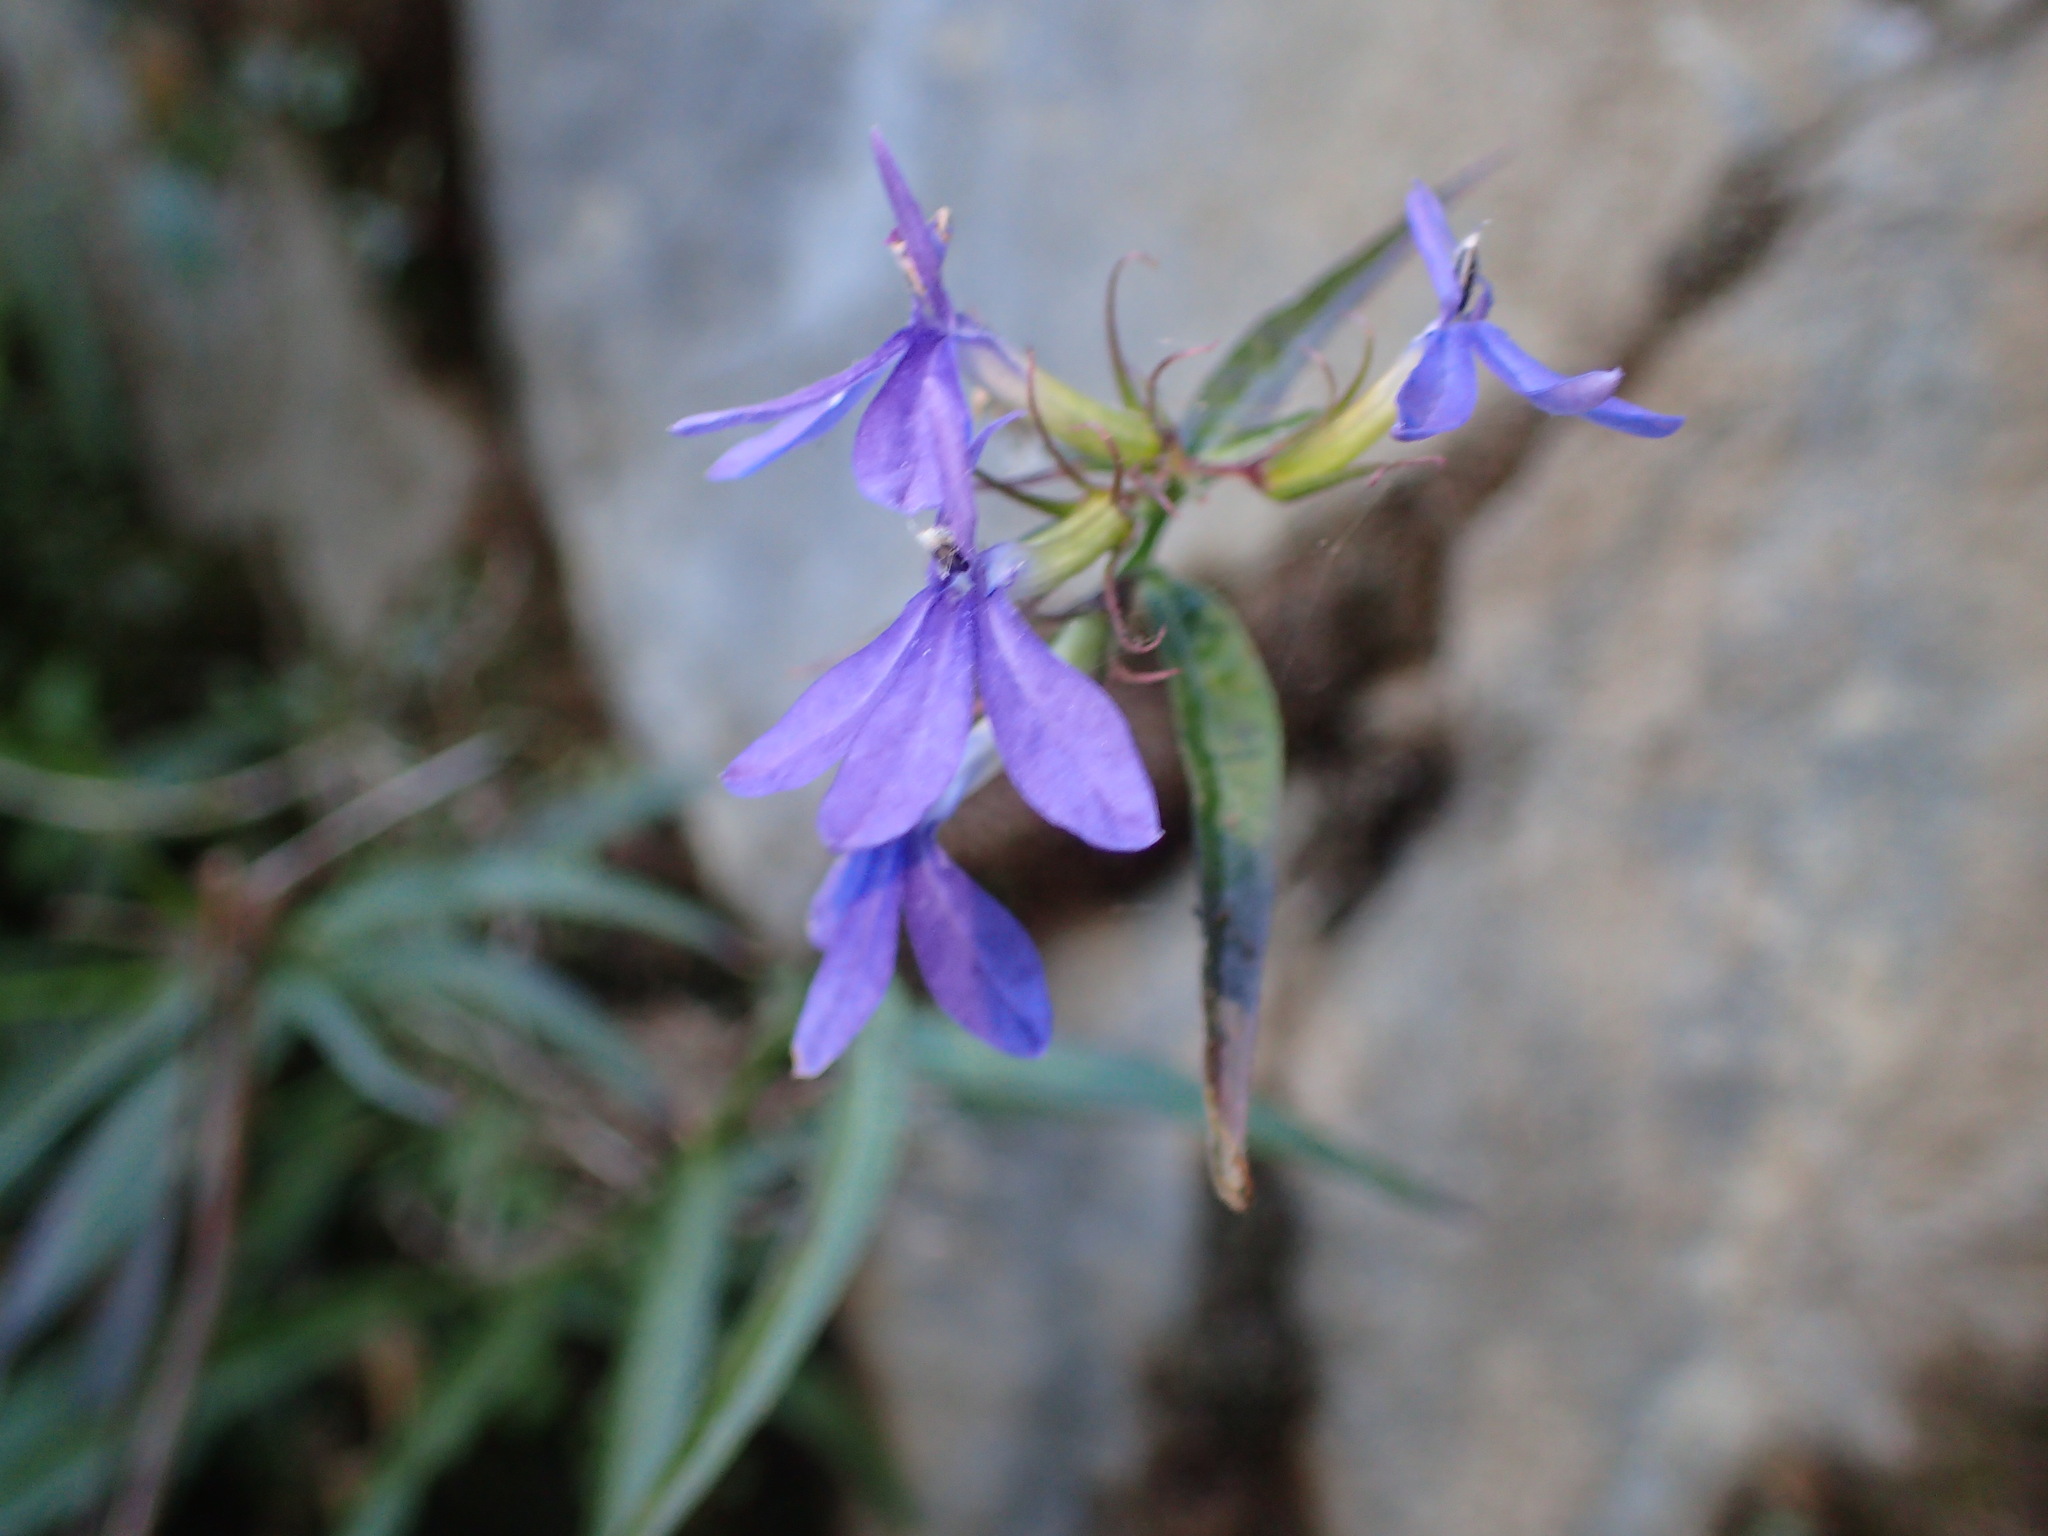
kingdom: Plantae
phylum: Tracheophyta
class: Magnoliopsida
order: Asterales
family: Campanulaceae
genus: Palmerella
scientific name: Palmerella debilis
